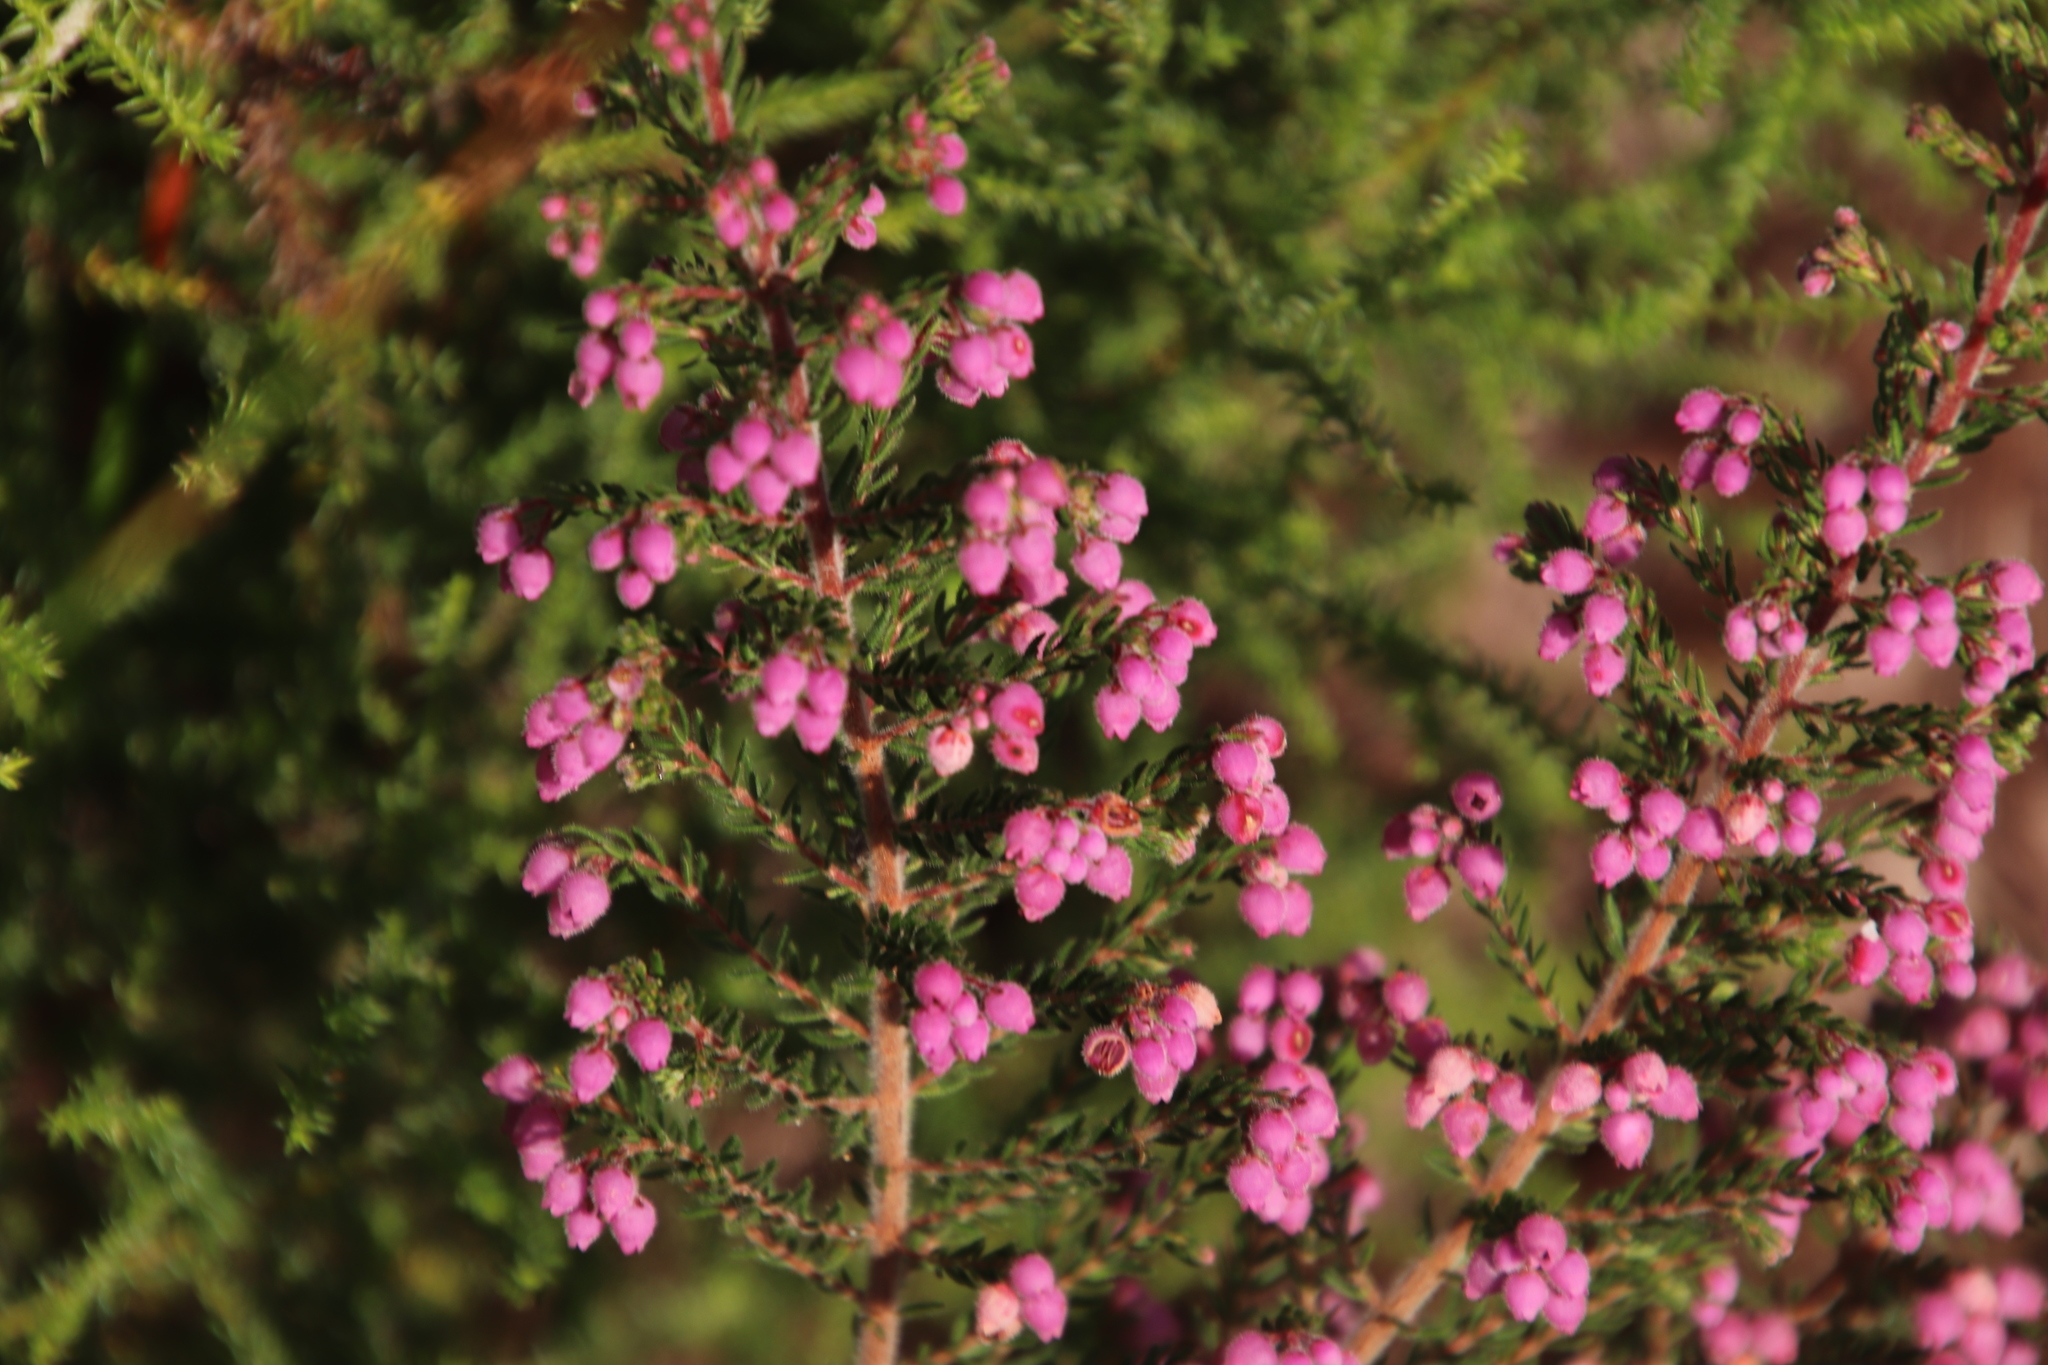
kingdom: Plantae
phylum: Tracheophyta
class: Magnoliopsida
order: Ericales
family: Ericaceae
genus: Erica
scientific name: Erica hirtiflora
